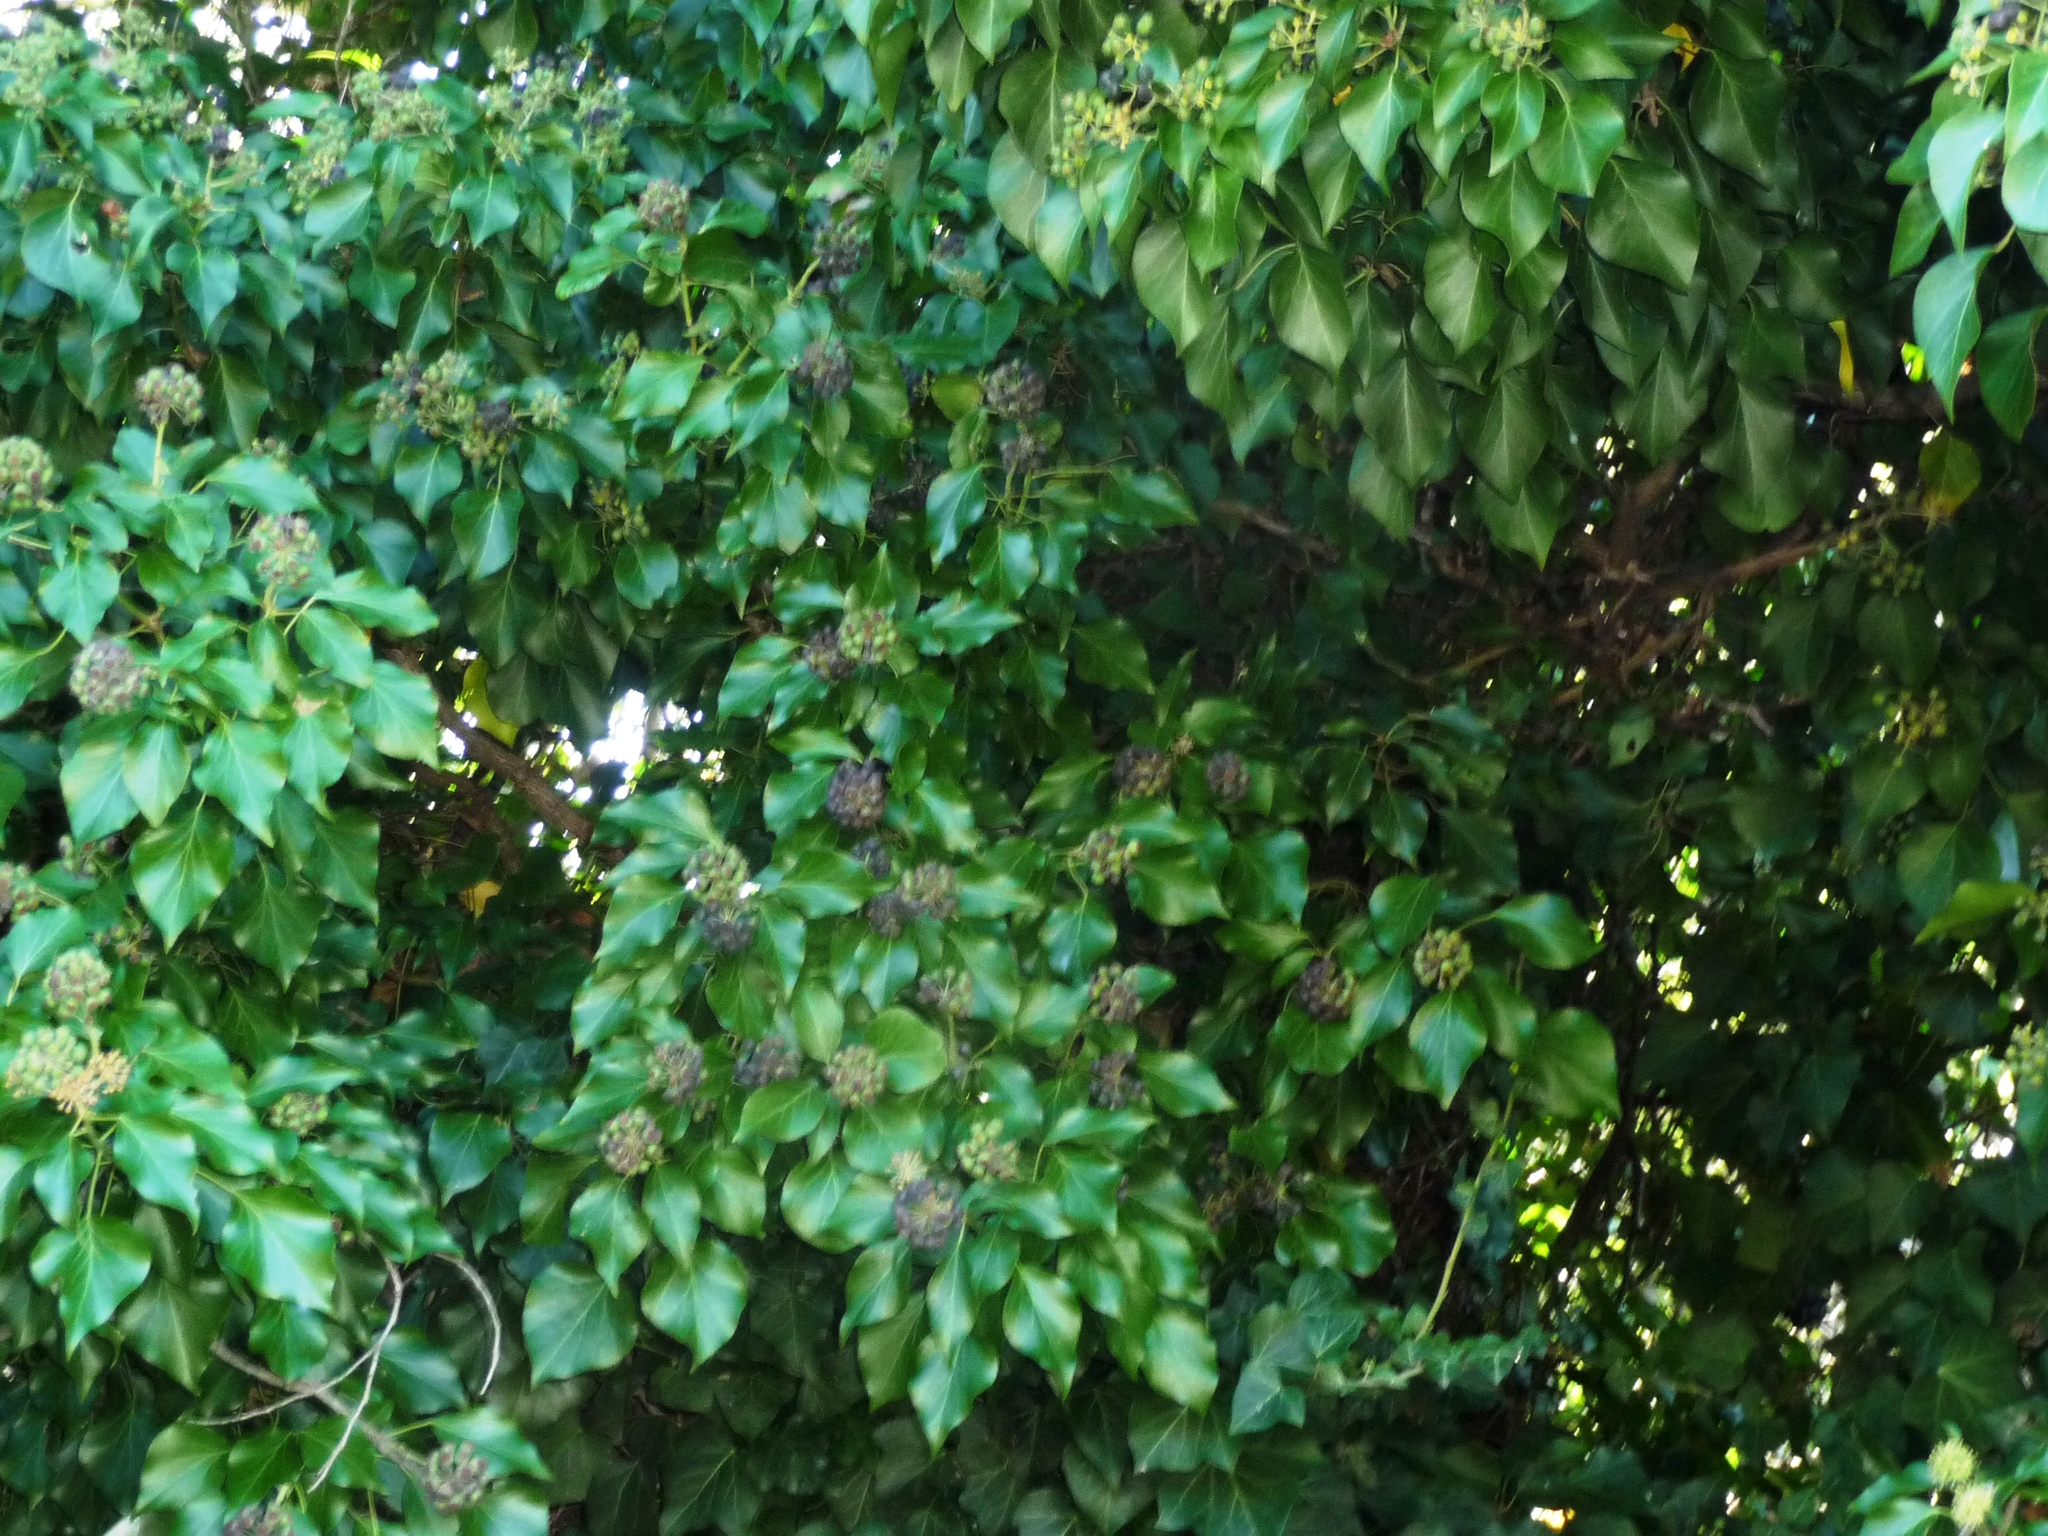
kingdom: Plantae
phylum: Tracheophyta
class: Magnoliopsida
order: Apiales
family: Araliaceae
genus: Hedera
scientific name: Hedera
